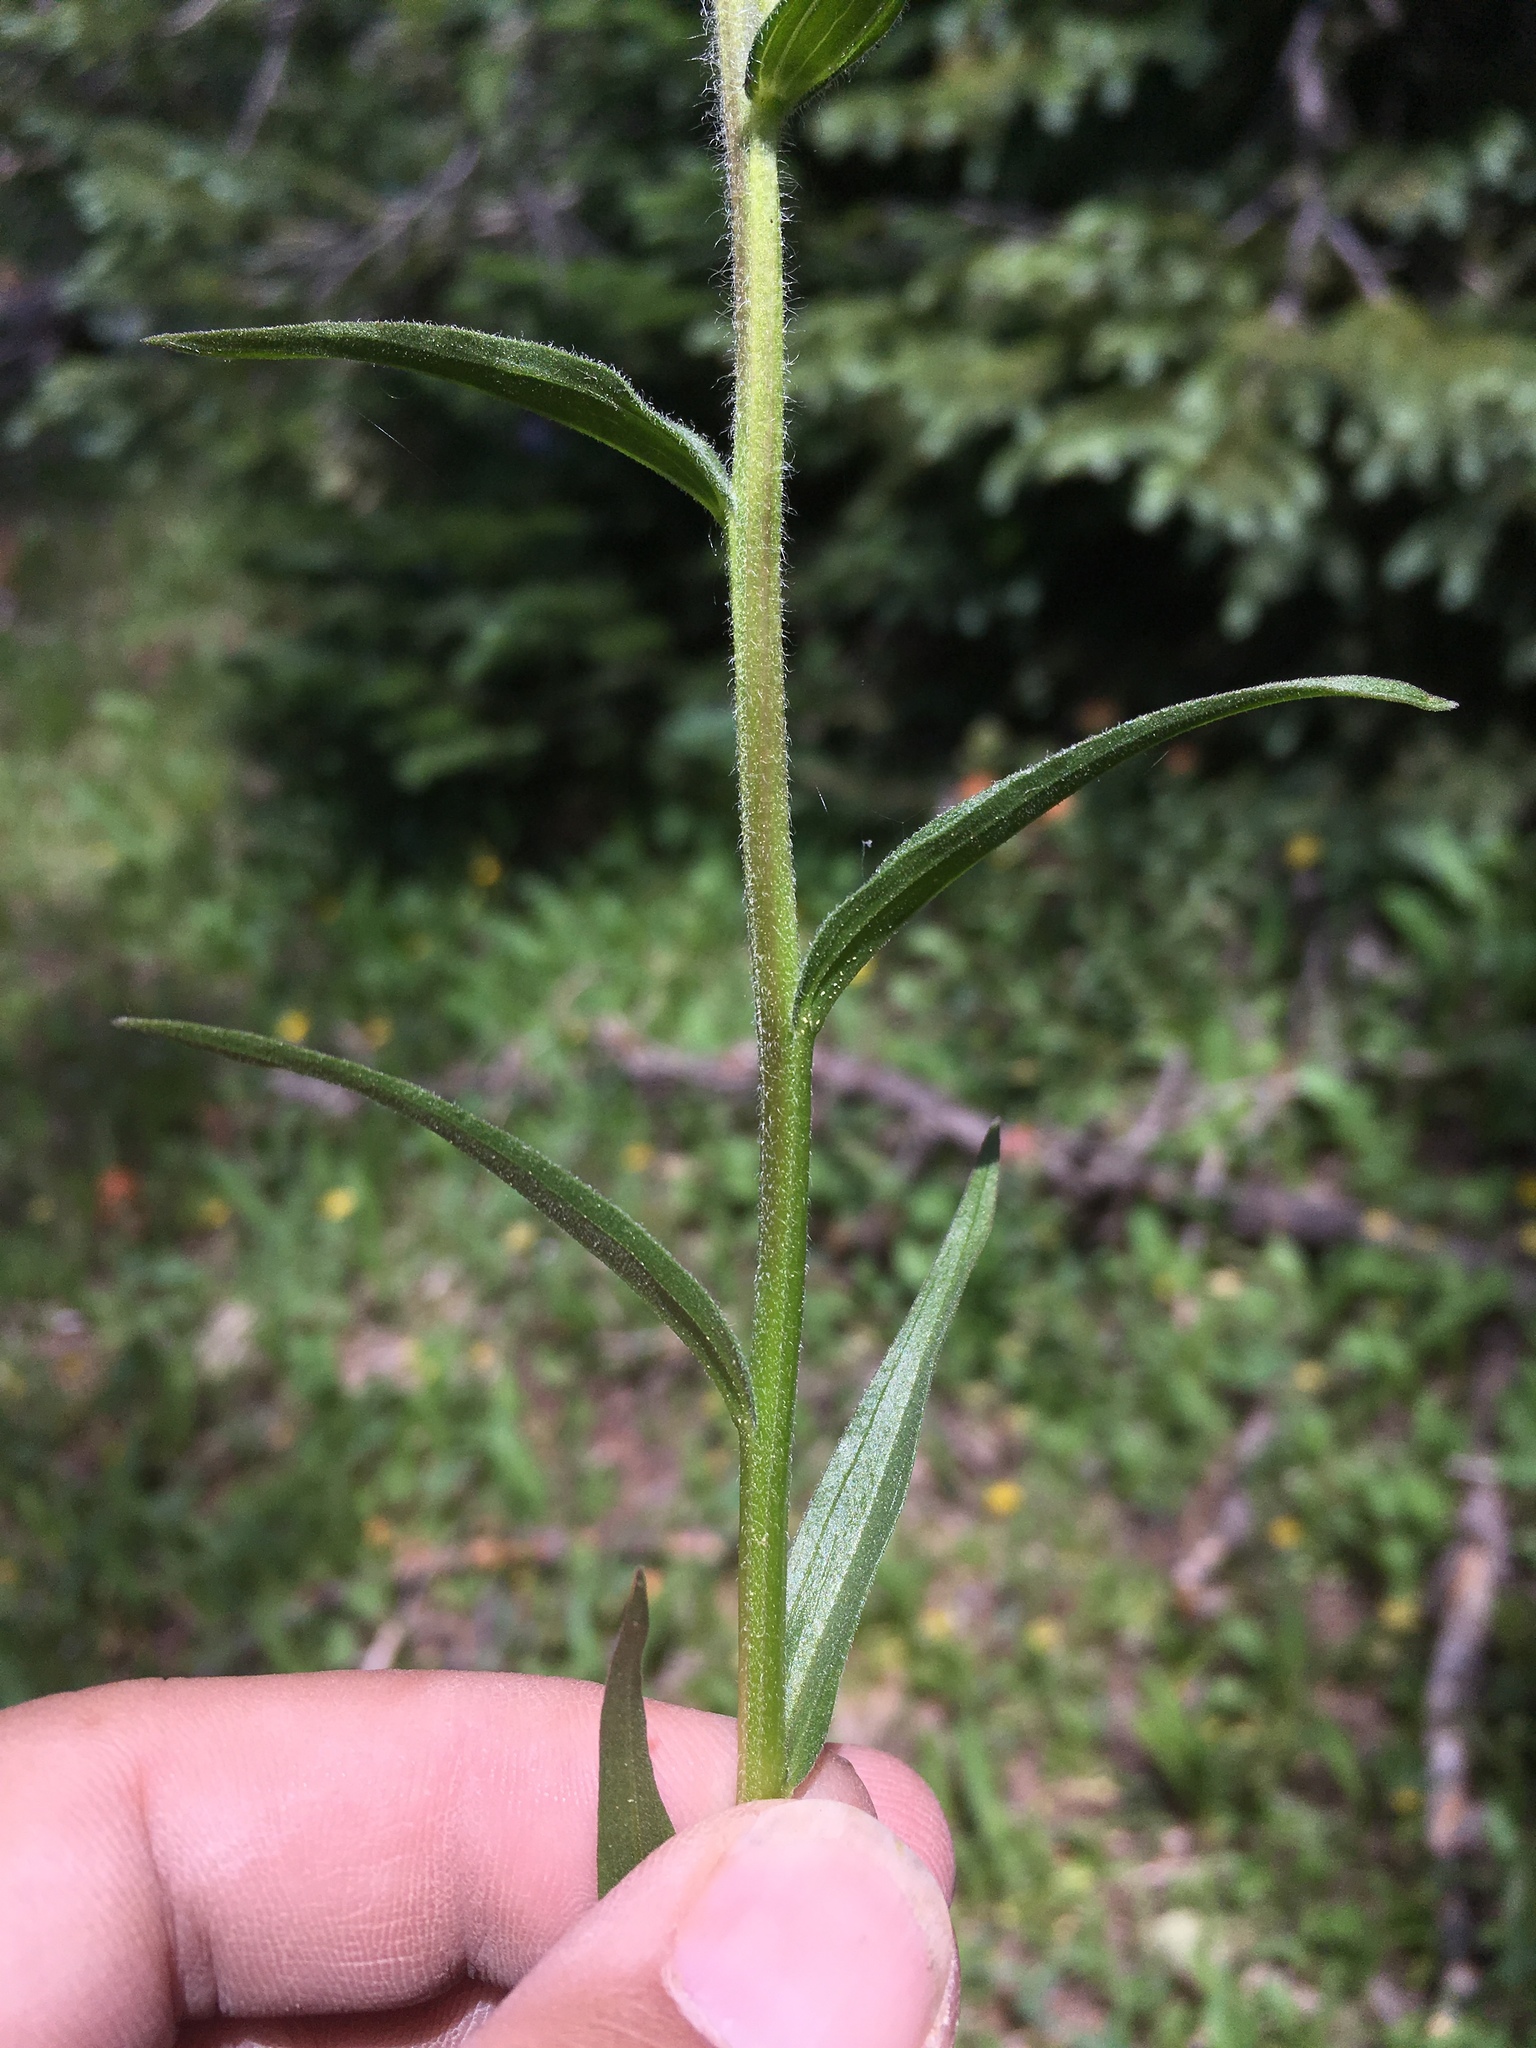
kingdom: Plantae
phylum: Tracheophyta
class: Magnoliopsida
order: Lamiales
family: Orobanchaceae
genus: Castilleja
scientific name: Castilleja miniata
